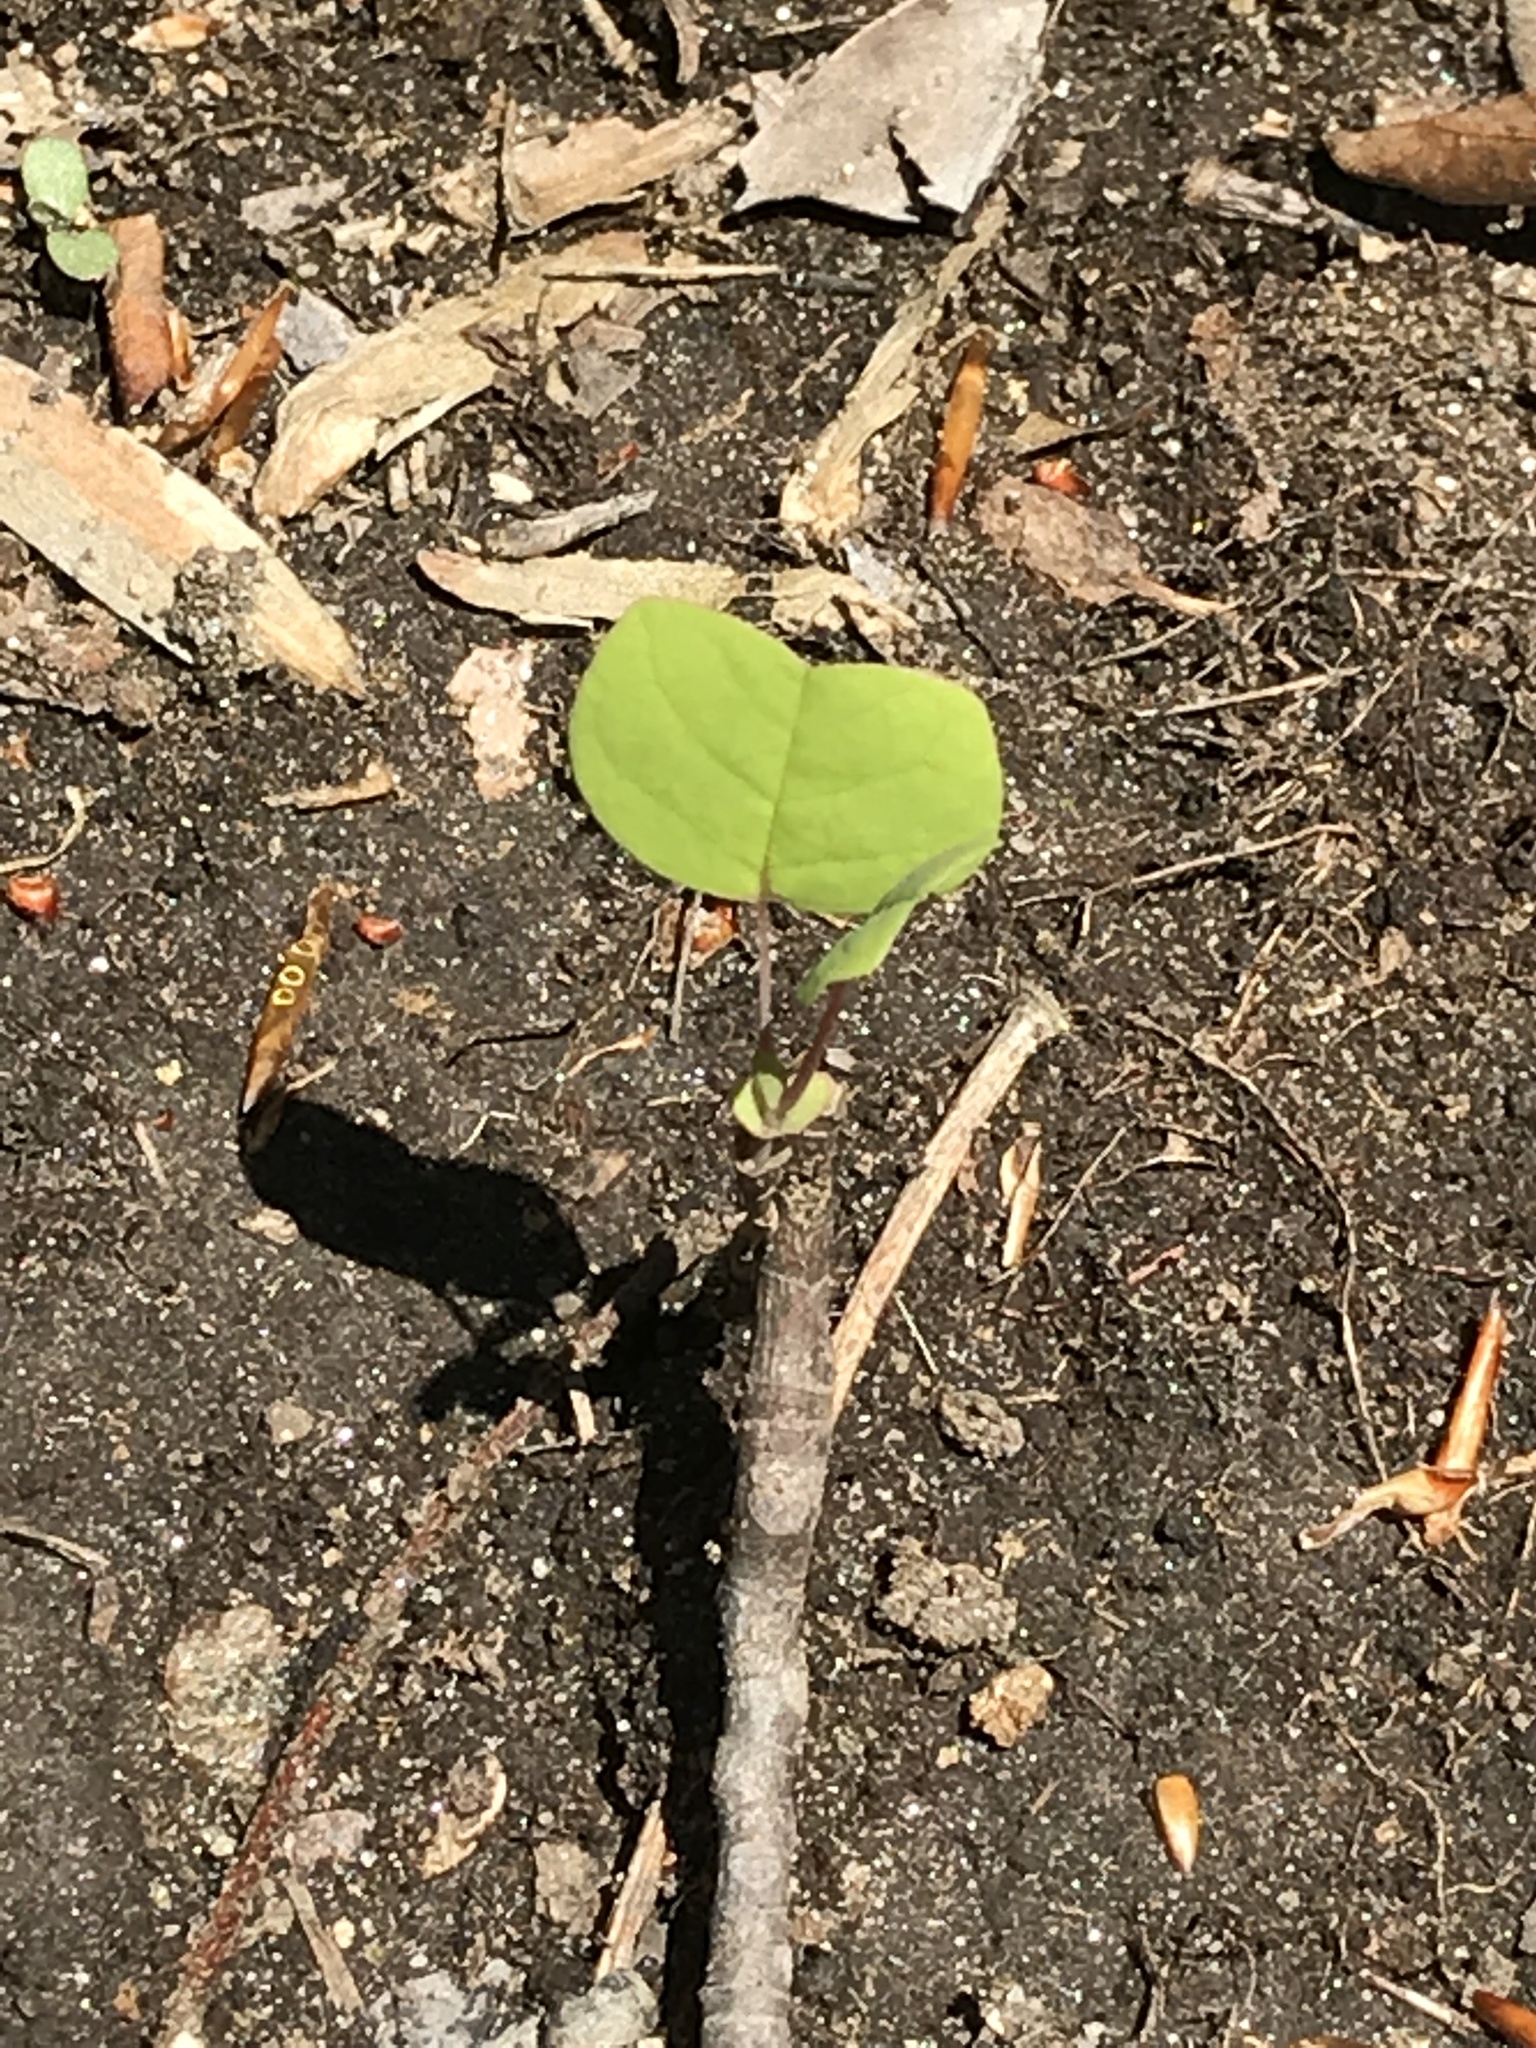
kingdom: Plantae
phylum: Tracheophyta
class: Magnoliopsida
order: Magnoliales
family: Magnoliaceae
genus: Liriodendron
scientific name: Liriodendron tulipifera
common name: Tulip tree
